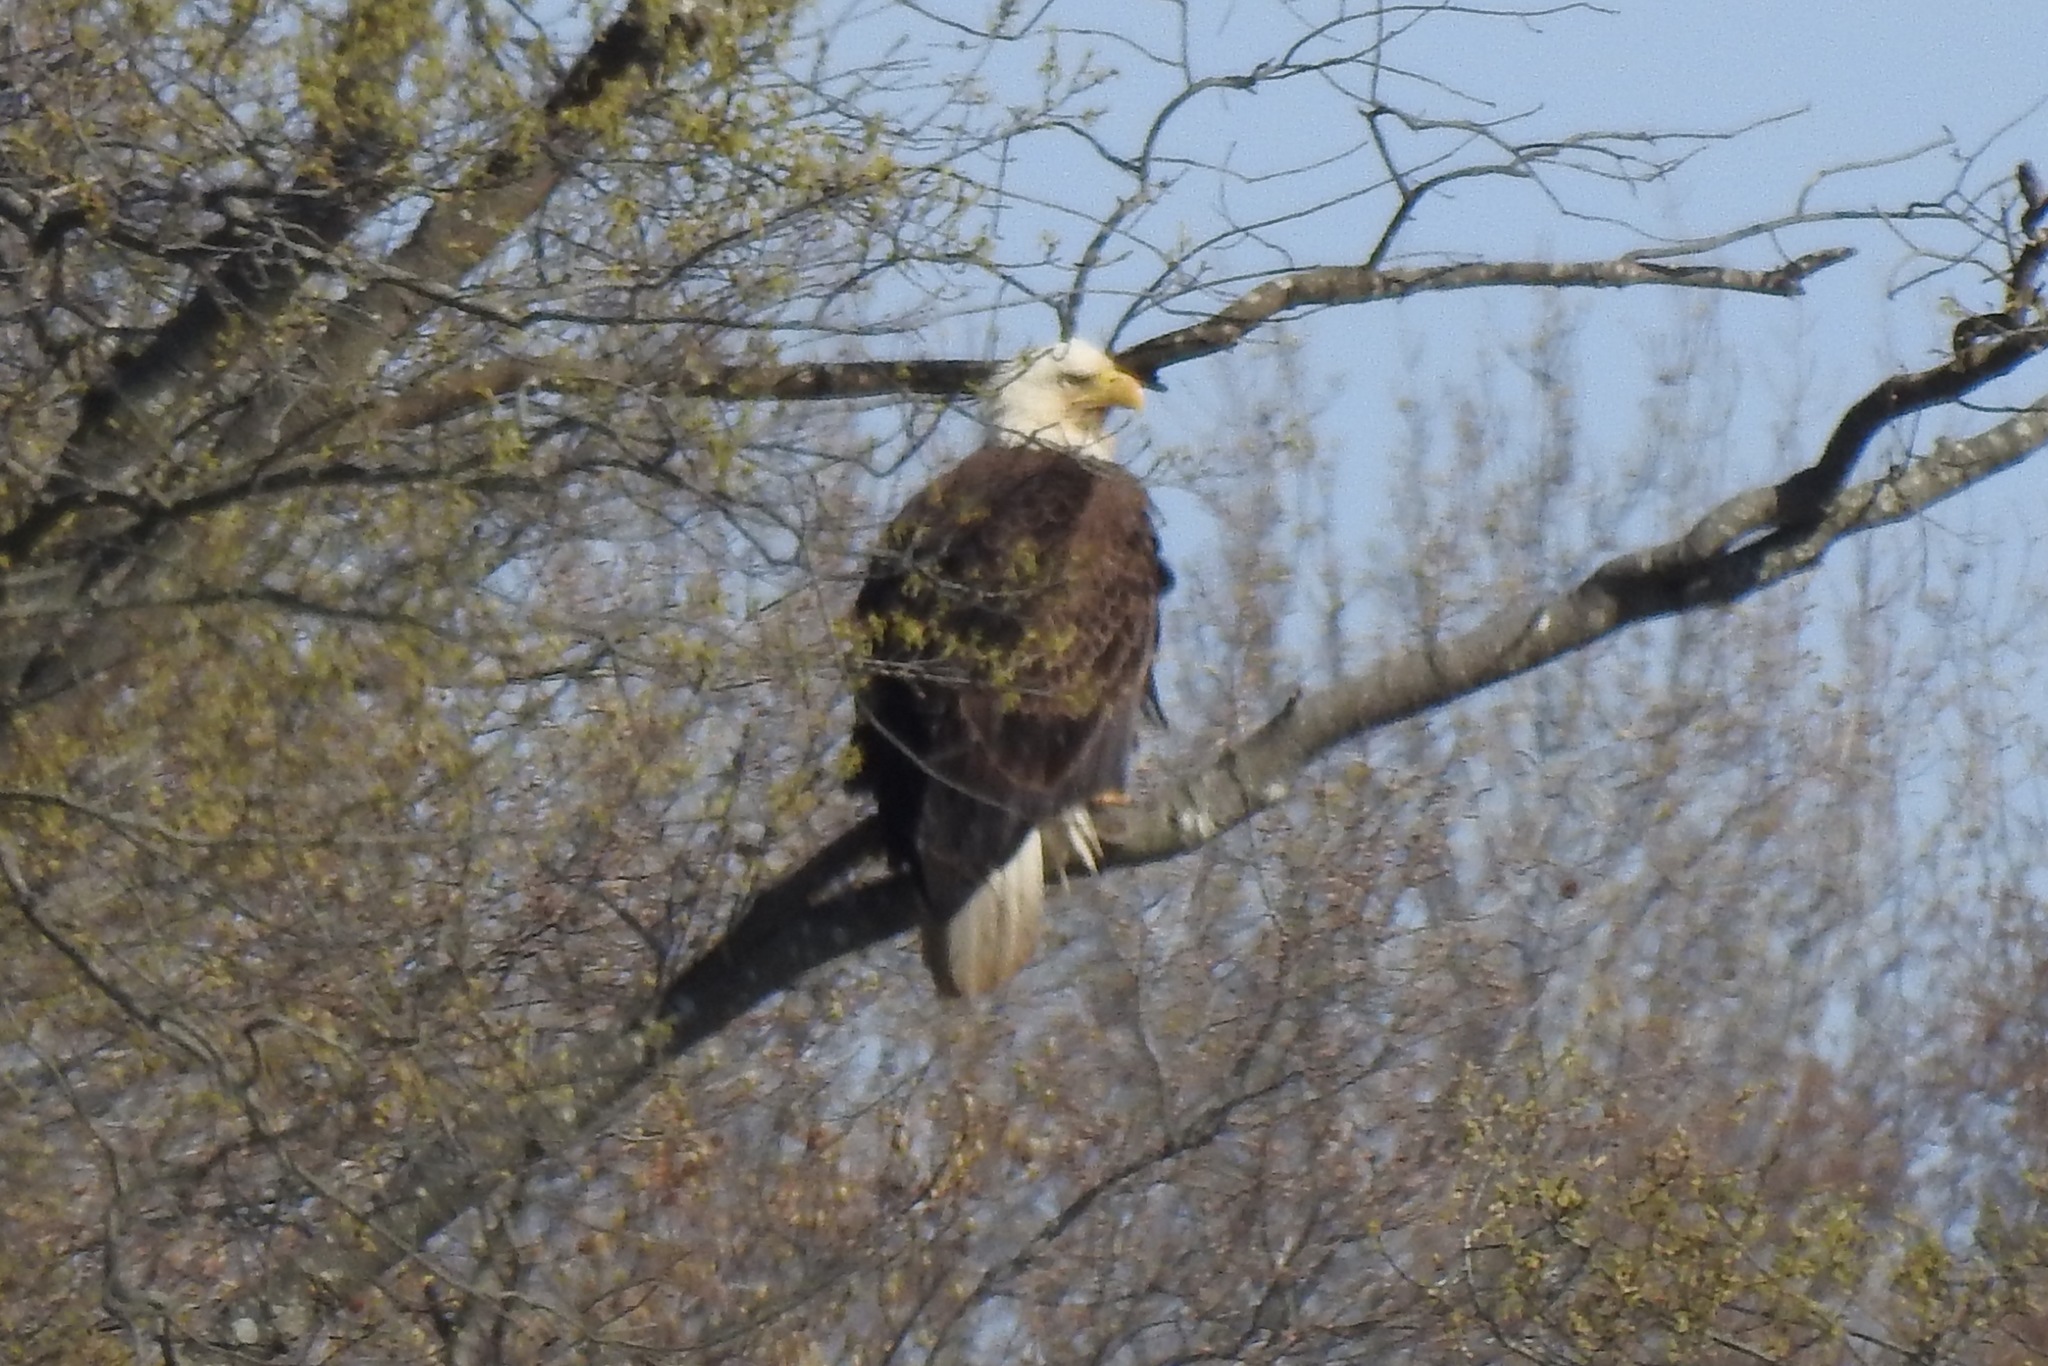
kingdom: Animalia
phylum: Chordata
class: Aves
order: Accipitriformes
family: Accipitridae
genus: Haliaeetus
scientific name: Haliaeetus leucocephalus
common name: Bald eagle
